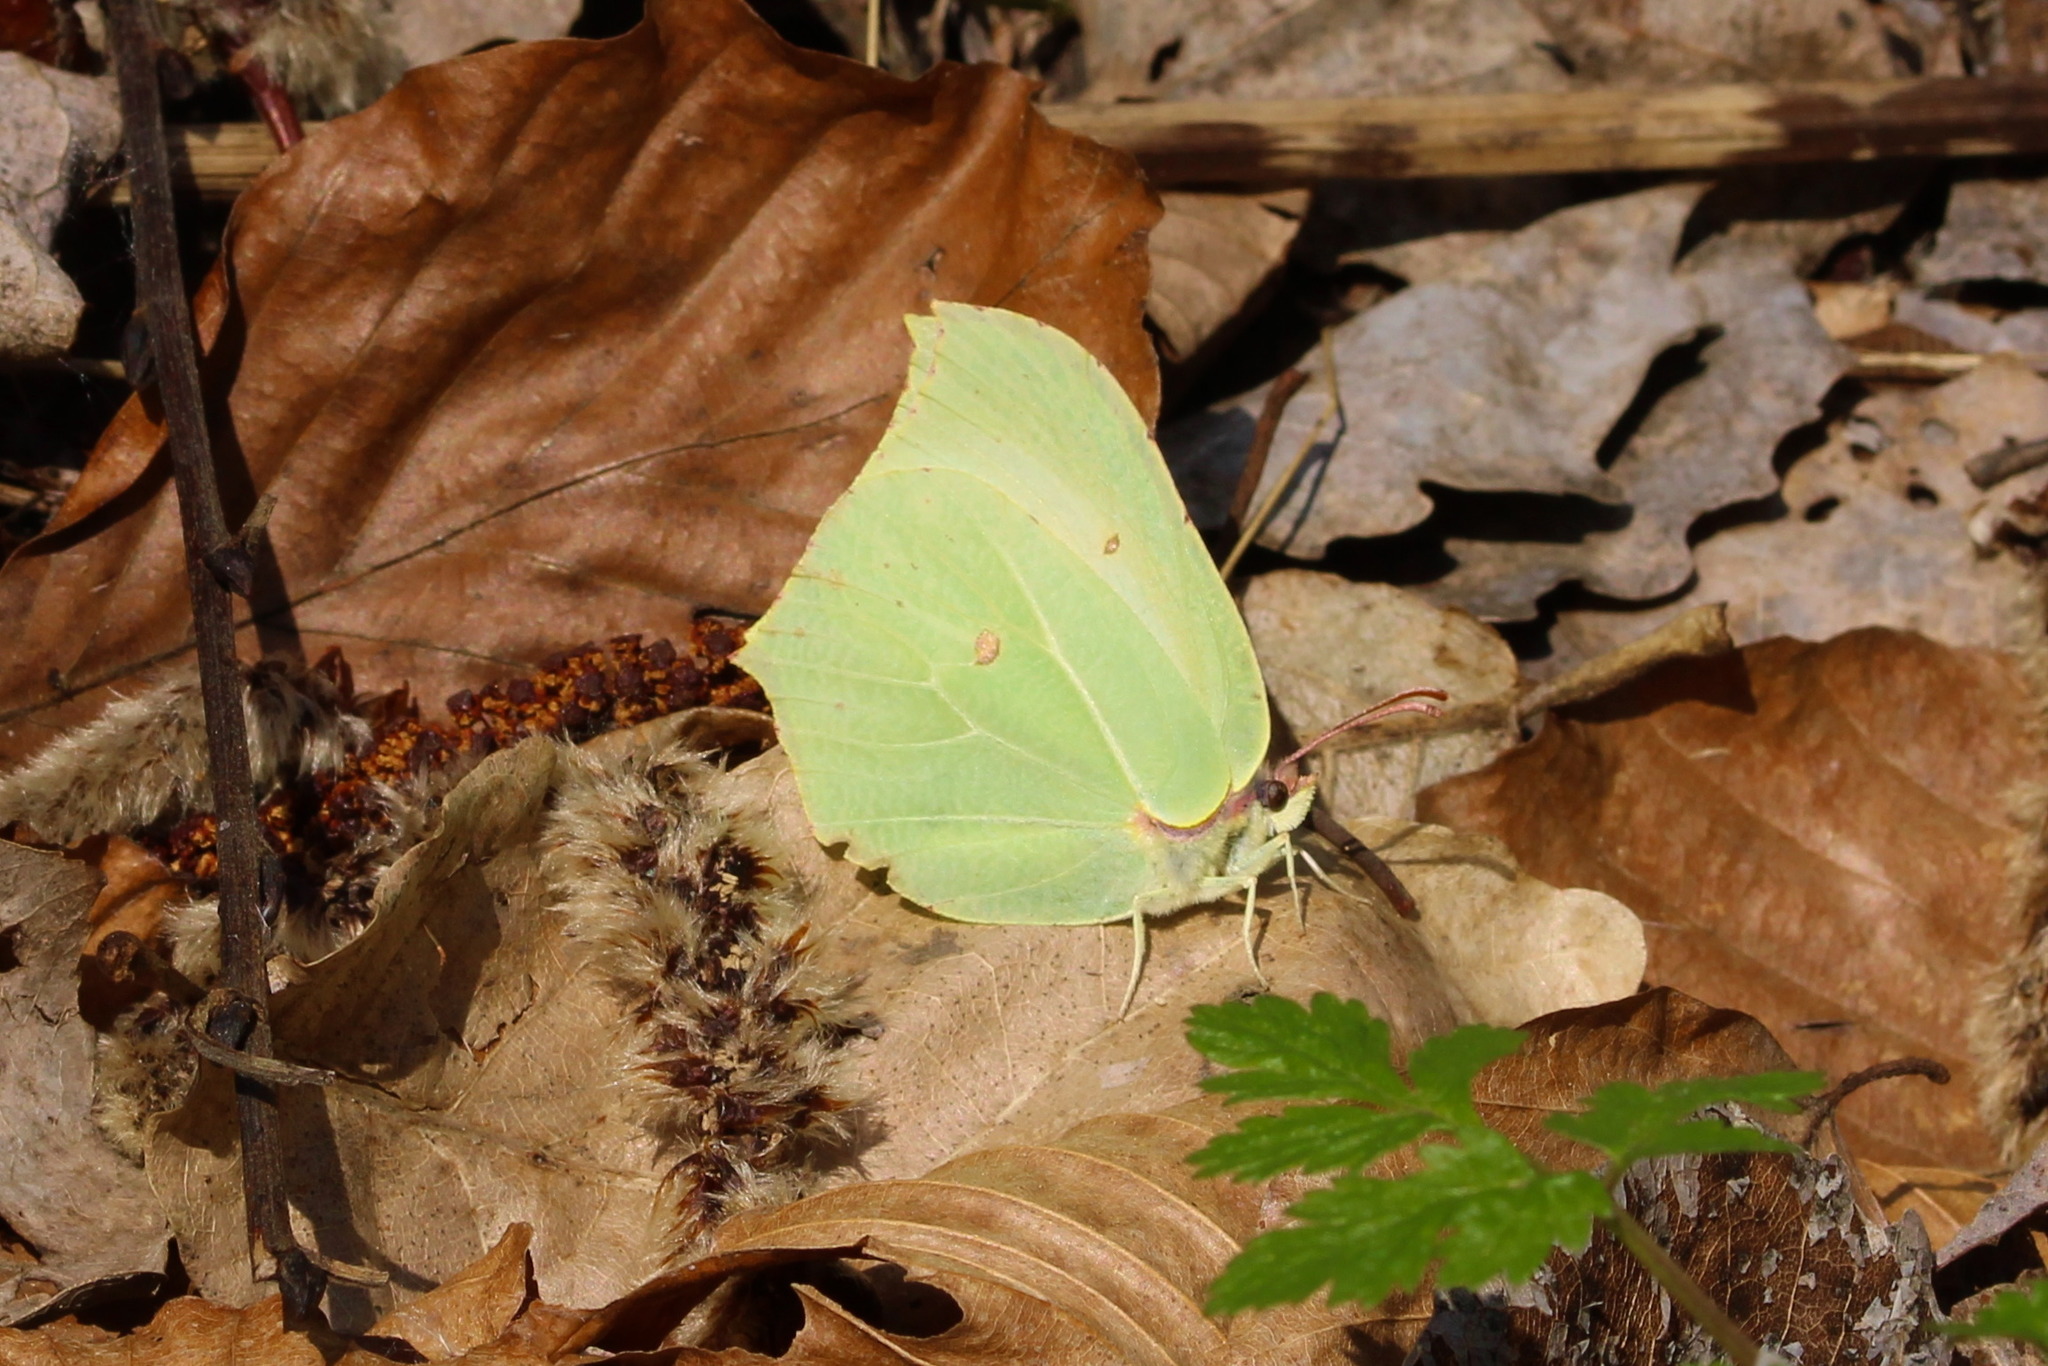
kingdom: Animalia
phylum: Arthropoda
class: Insecta
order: Lepidoptera
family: Pieridae
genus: Gonepteryx
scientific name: Gonepteryx rhamni
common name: Brimstone
